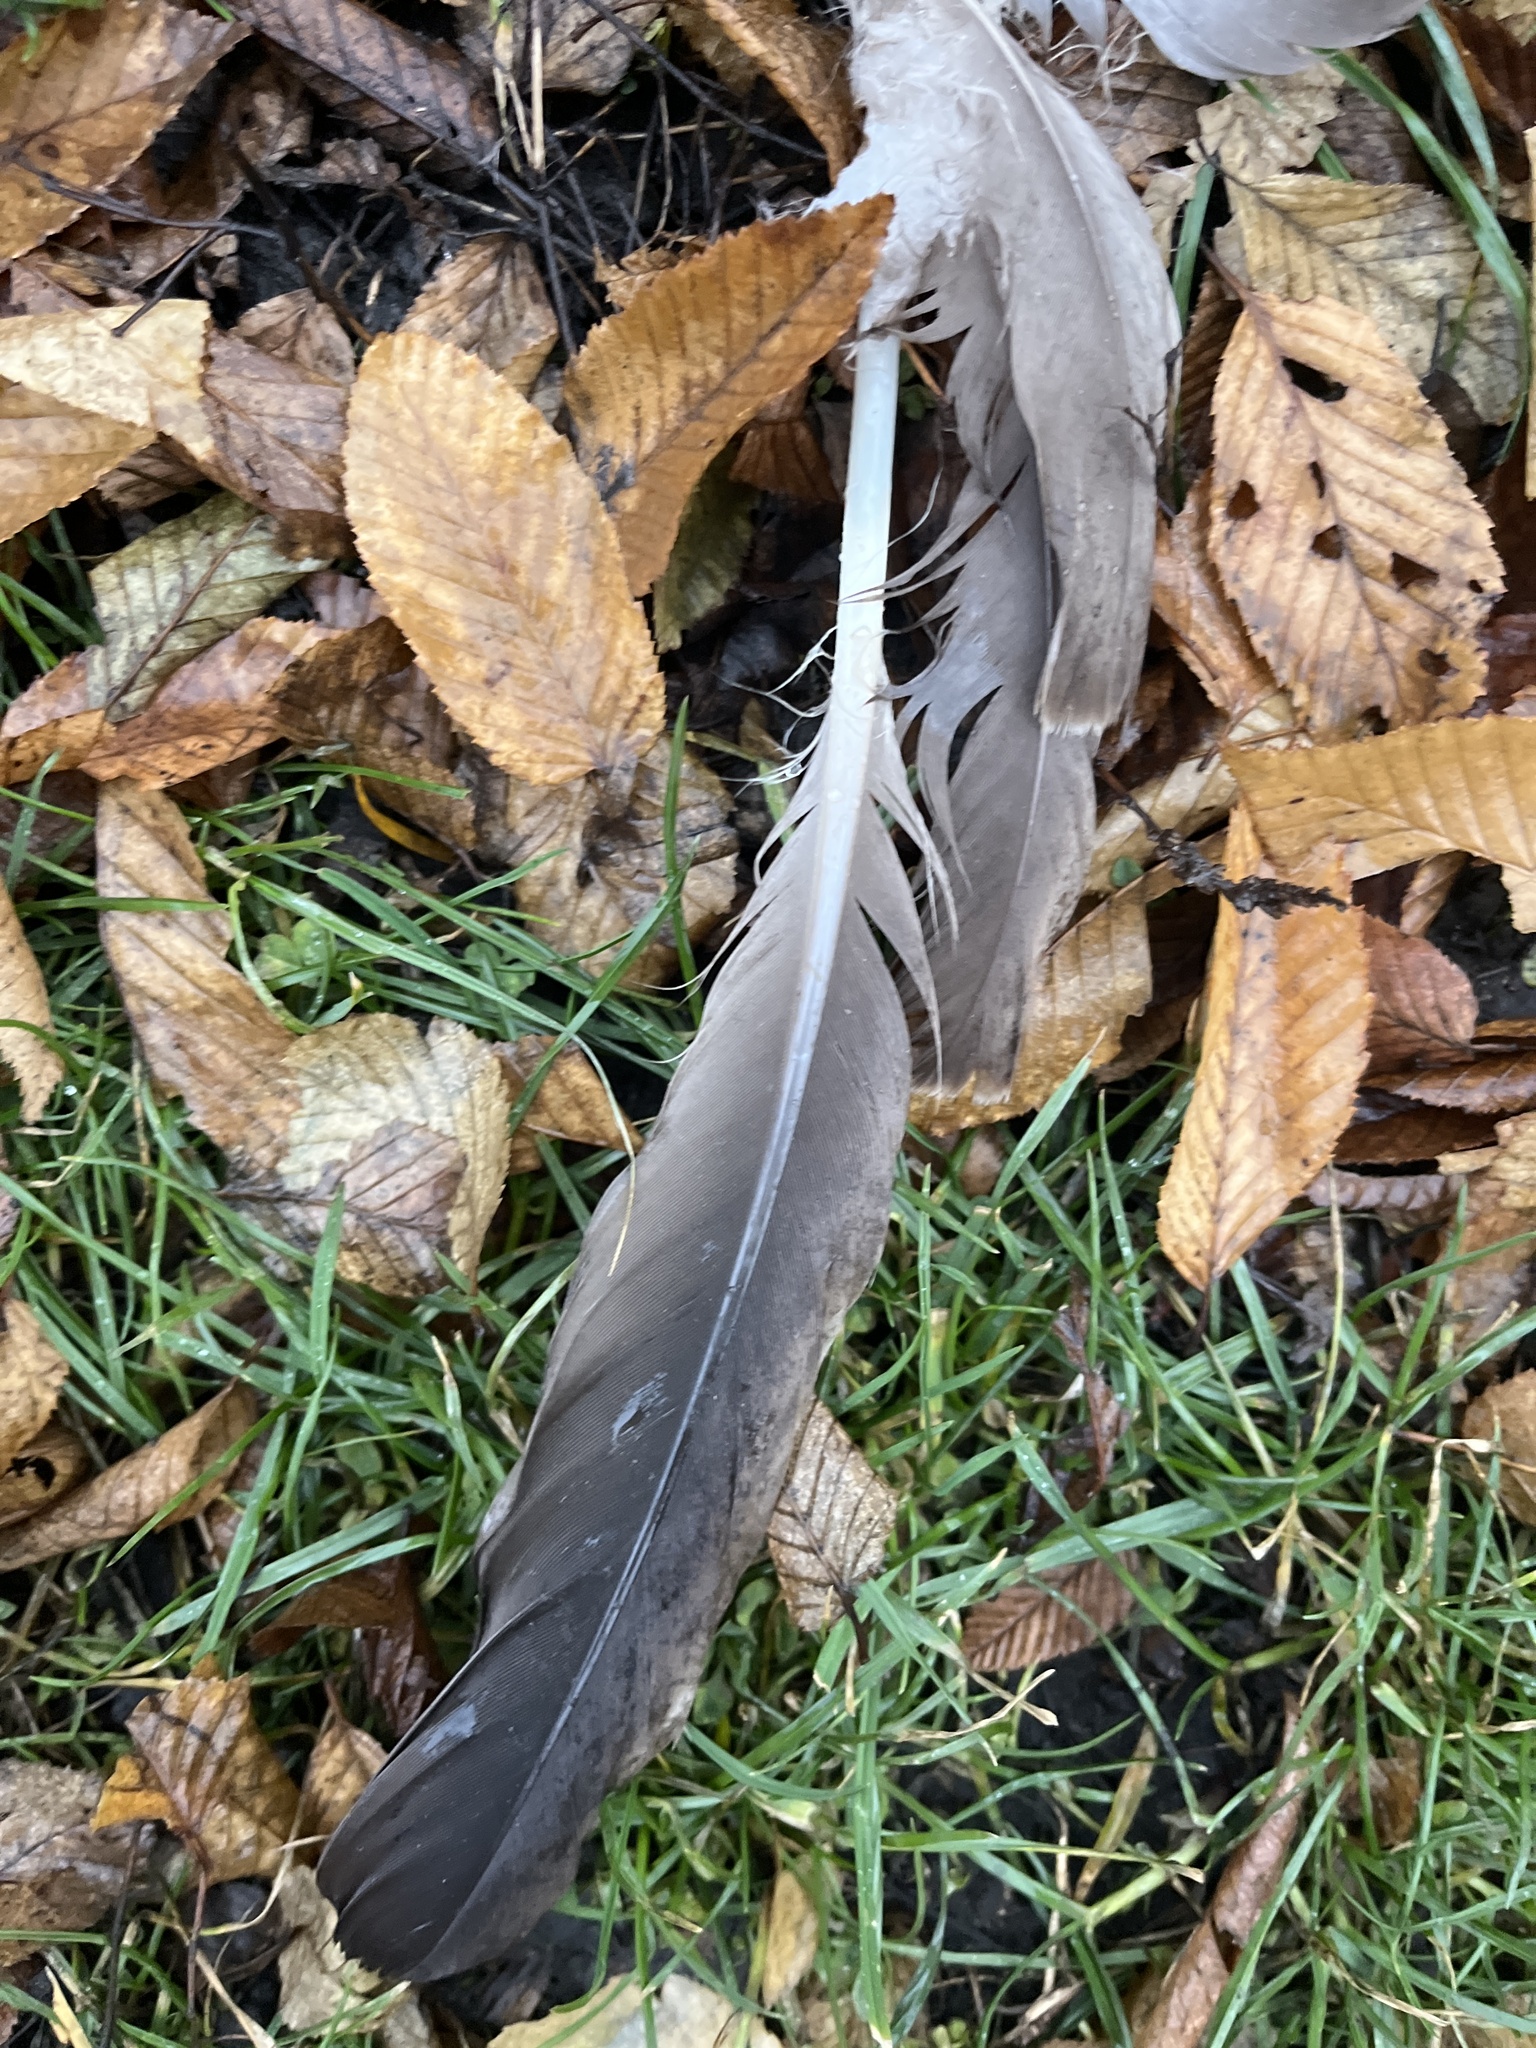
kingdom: Animalia
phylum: Chordata
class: Aves
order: Anseriformes
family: Anatidae
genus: Branta
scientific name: Branta canadensis
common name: Canada goose
